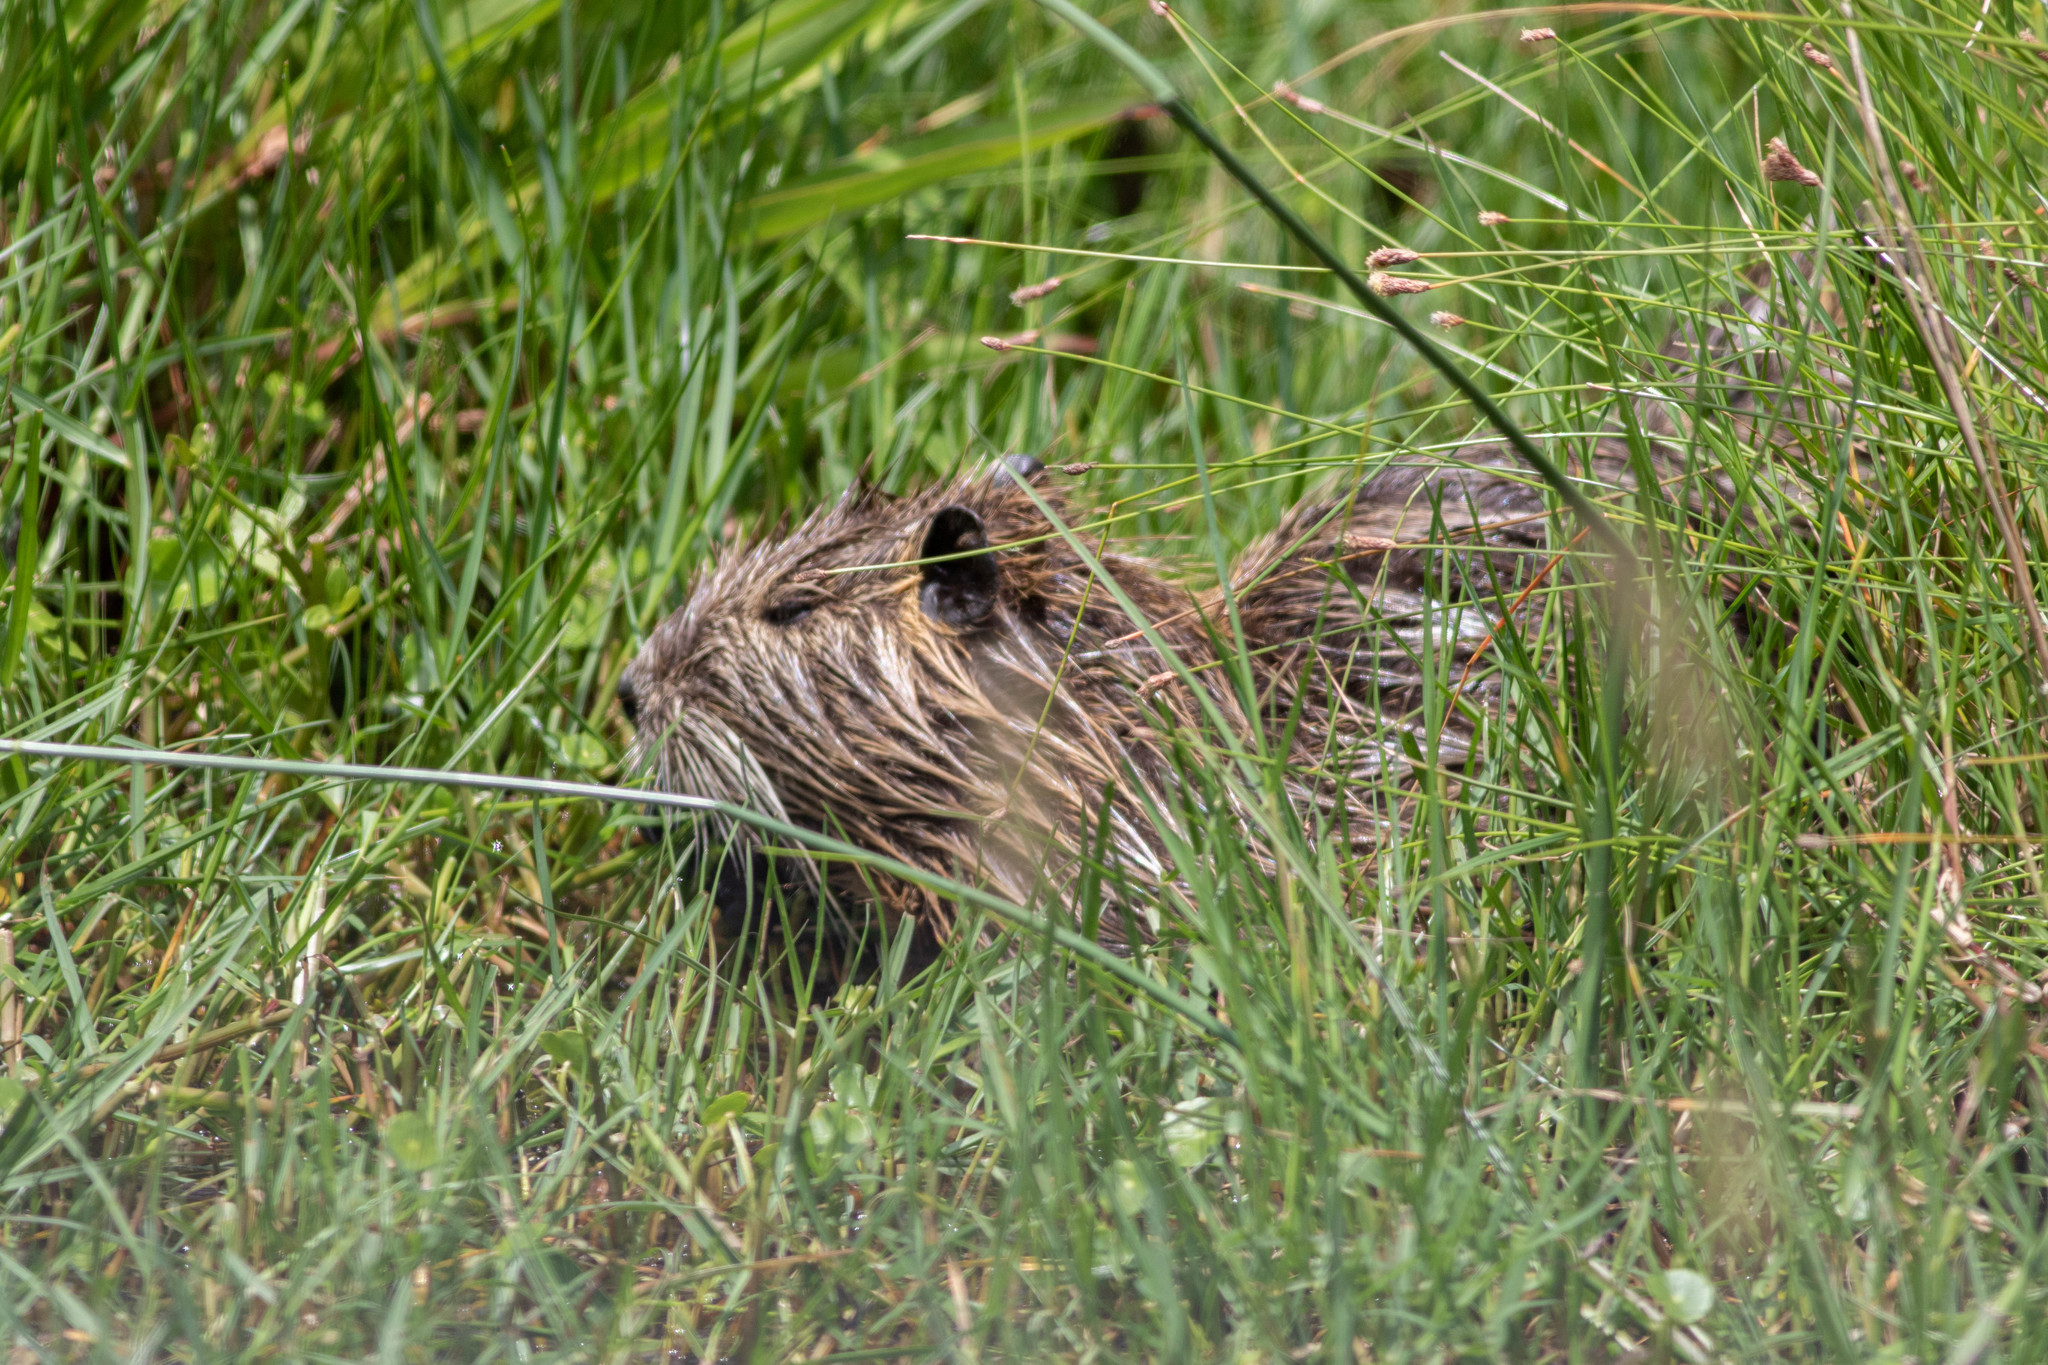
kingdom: Animalia
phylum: Chordata
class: Mammalia
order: Rodentia
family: Myocastoridae
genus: Myocastor
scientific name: Myocastor coypus
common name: Coypu
